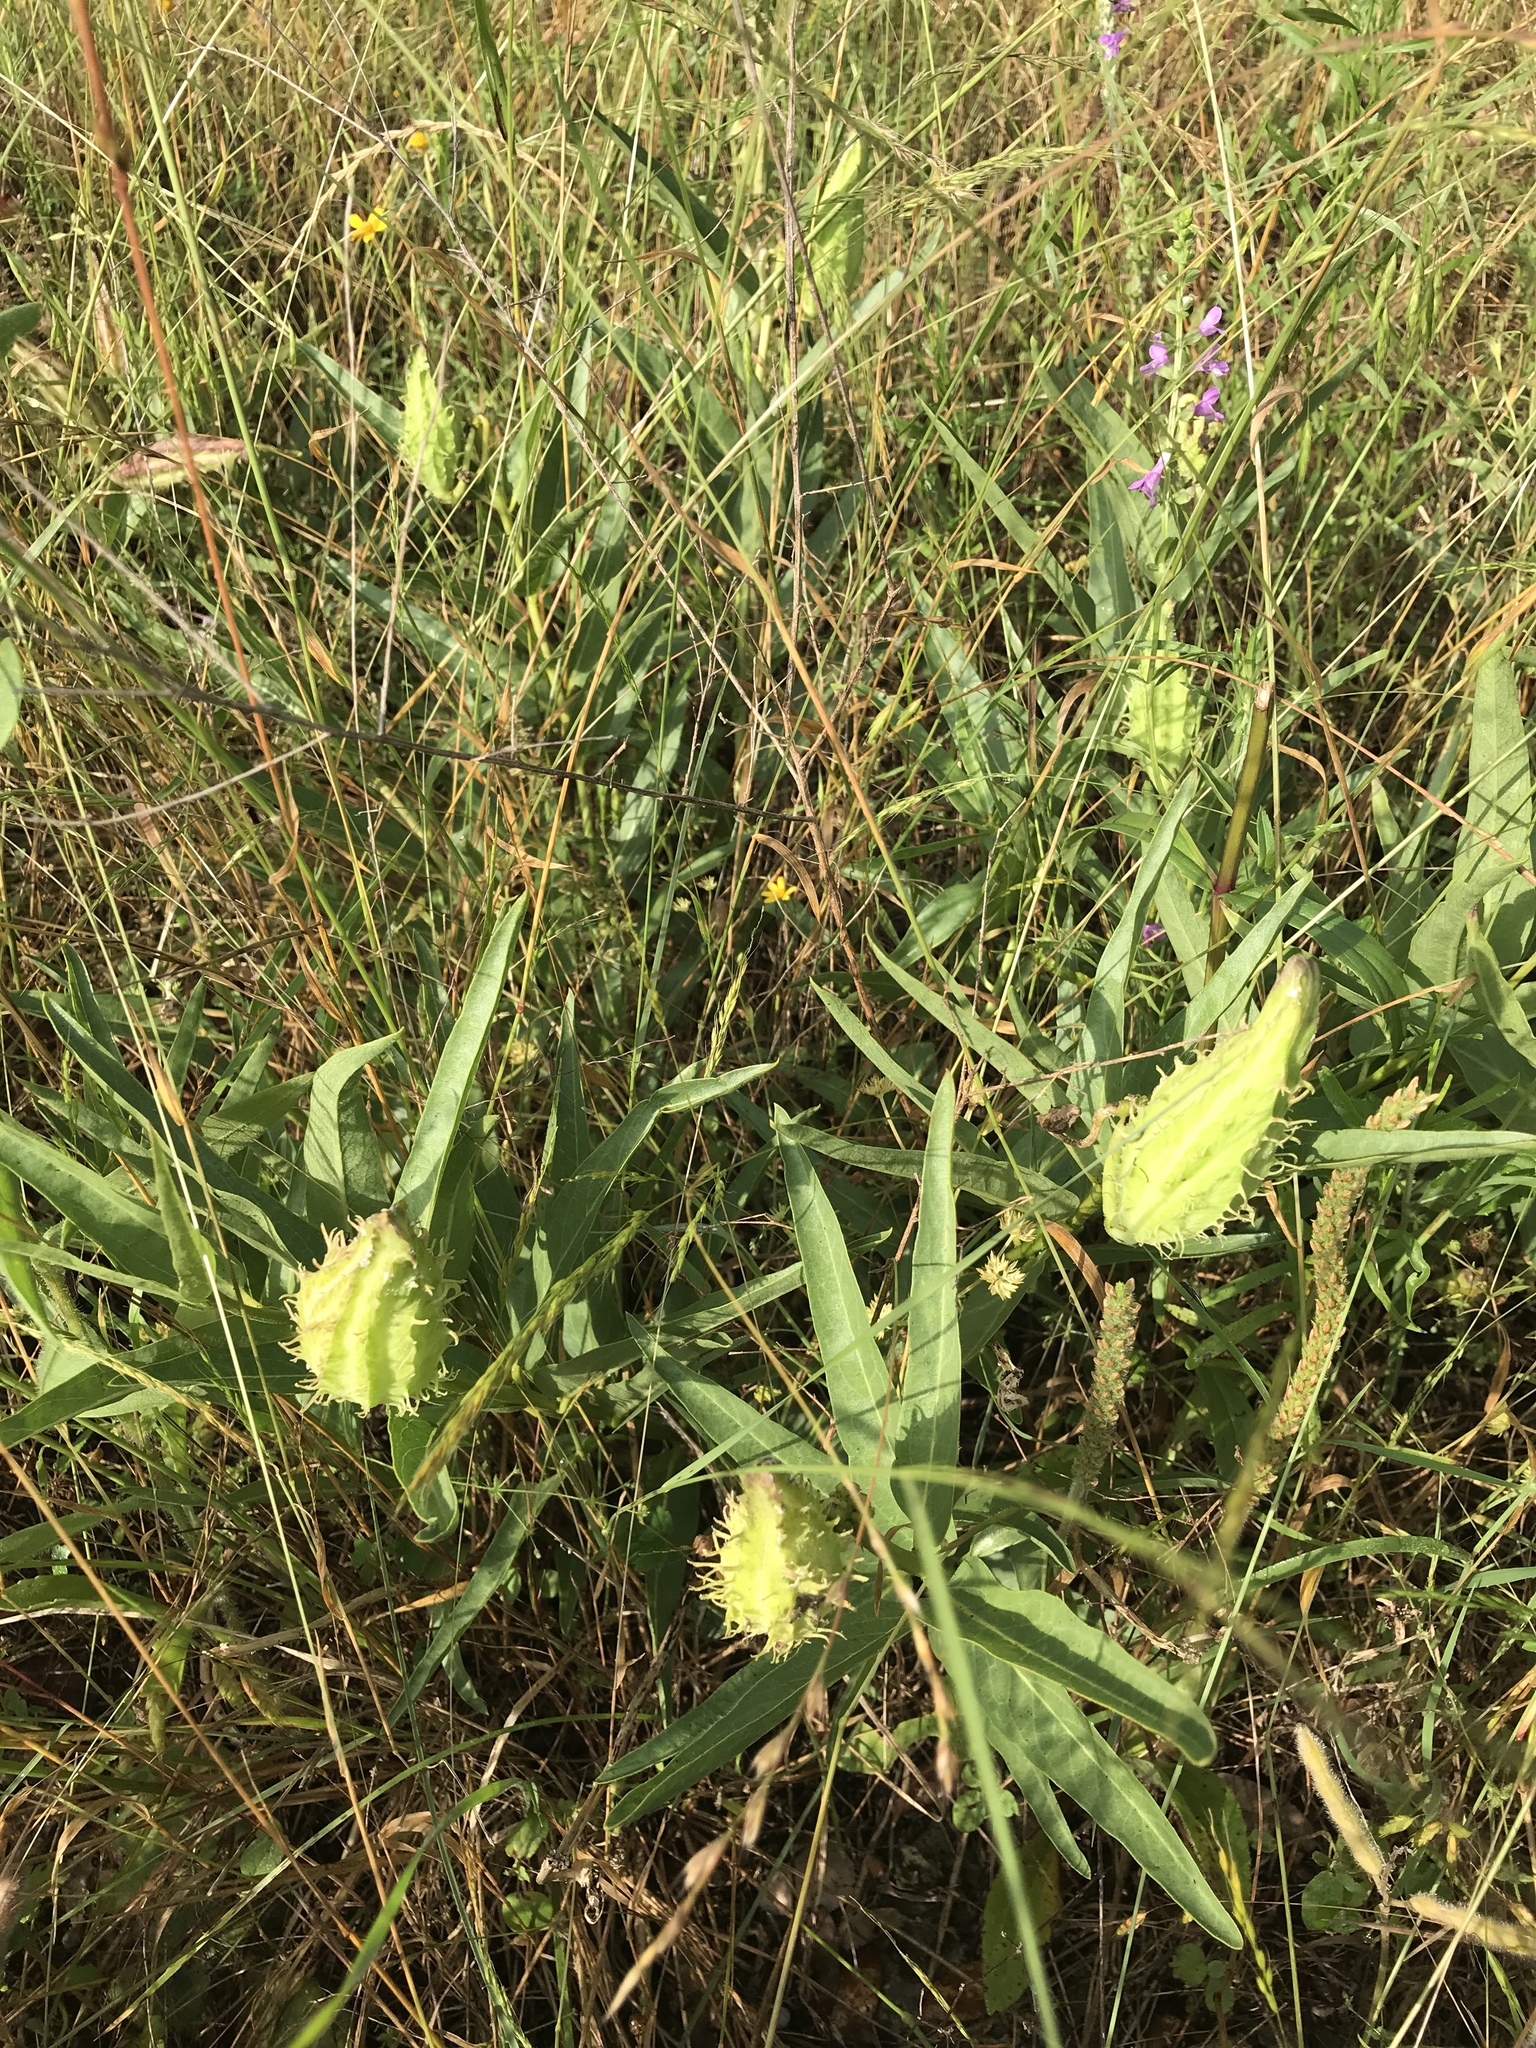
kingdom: Plantae
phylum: Tracheophyta
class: Magnoliopsida
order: Gentianales
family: Apocynaceae
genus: Asclepias
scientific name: Asclepias asperula
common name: Antelope horns
